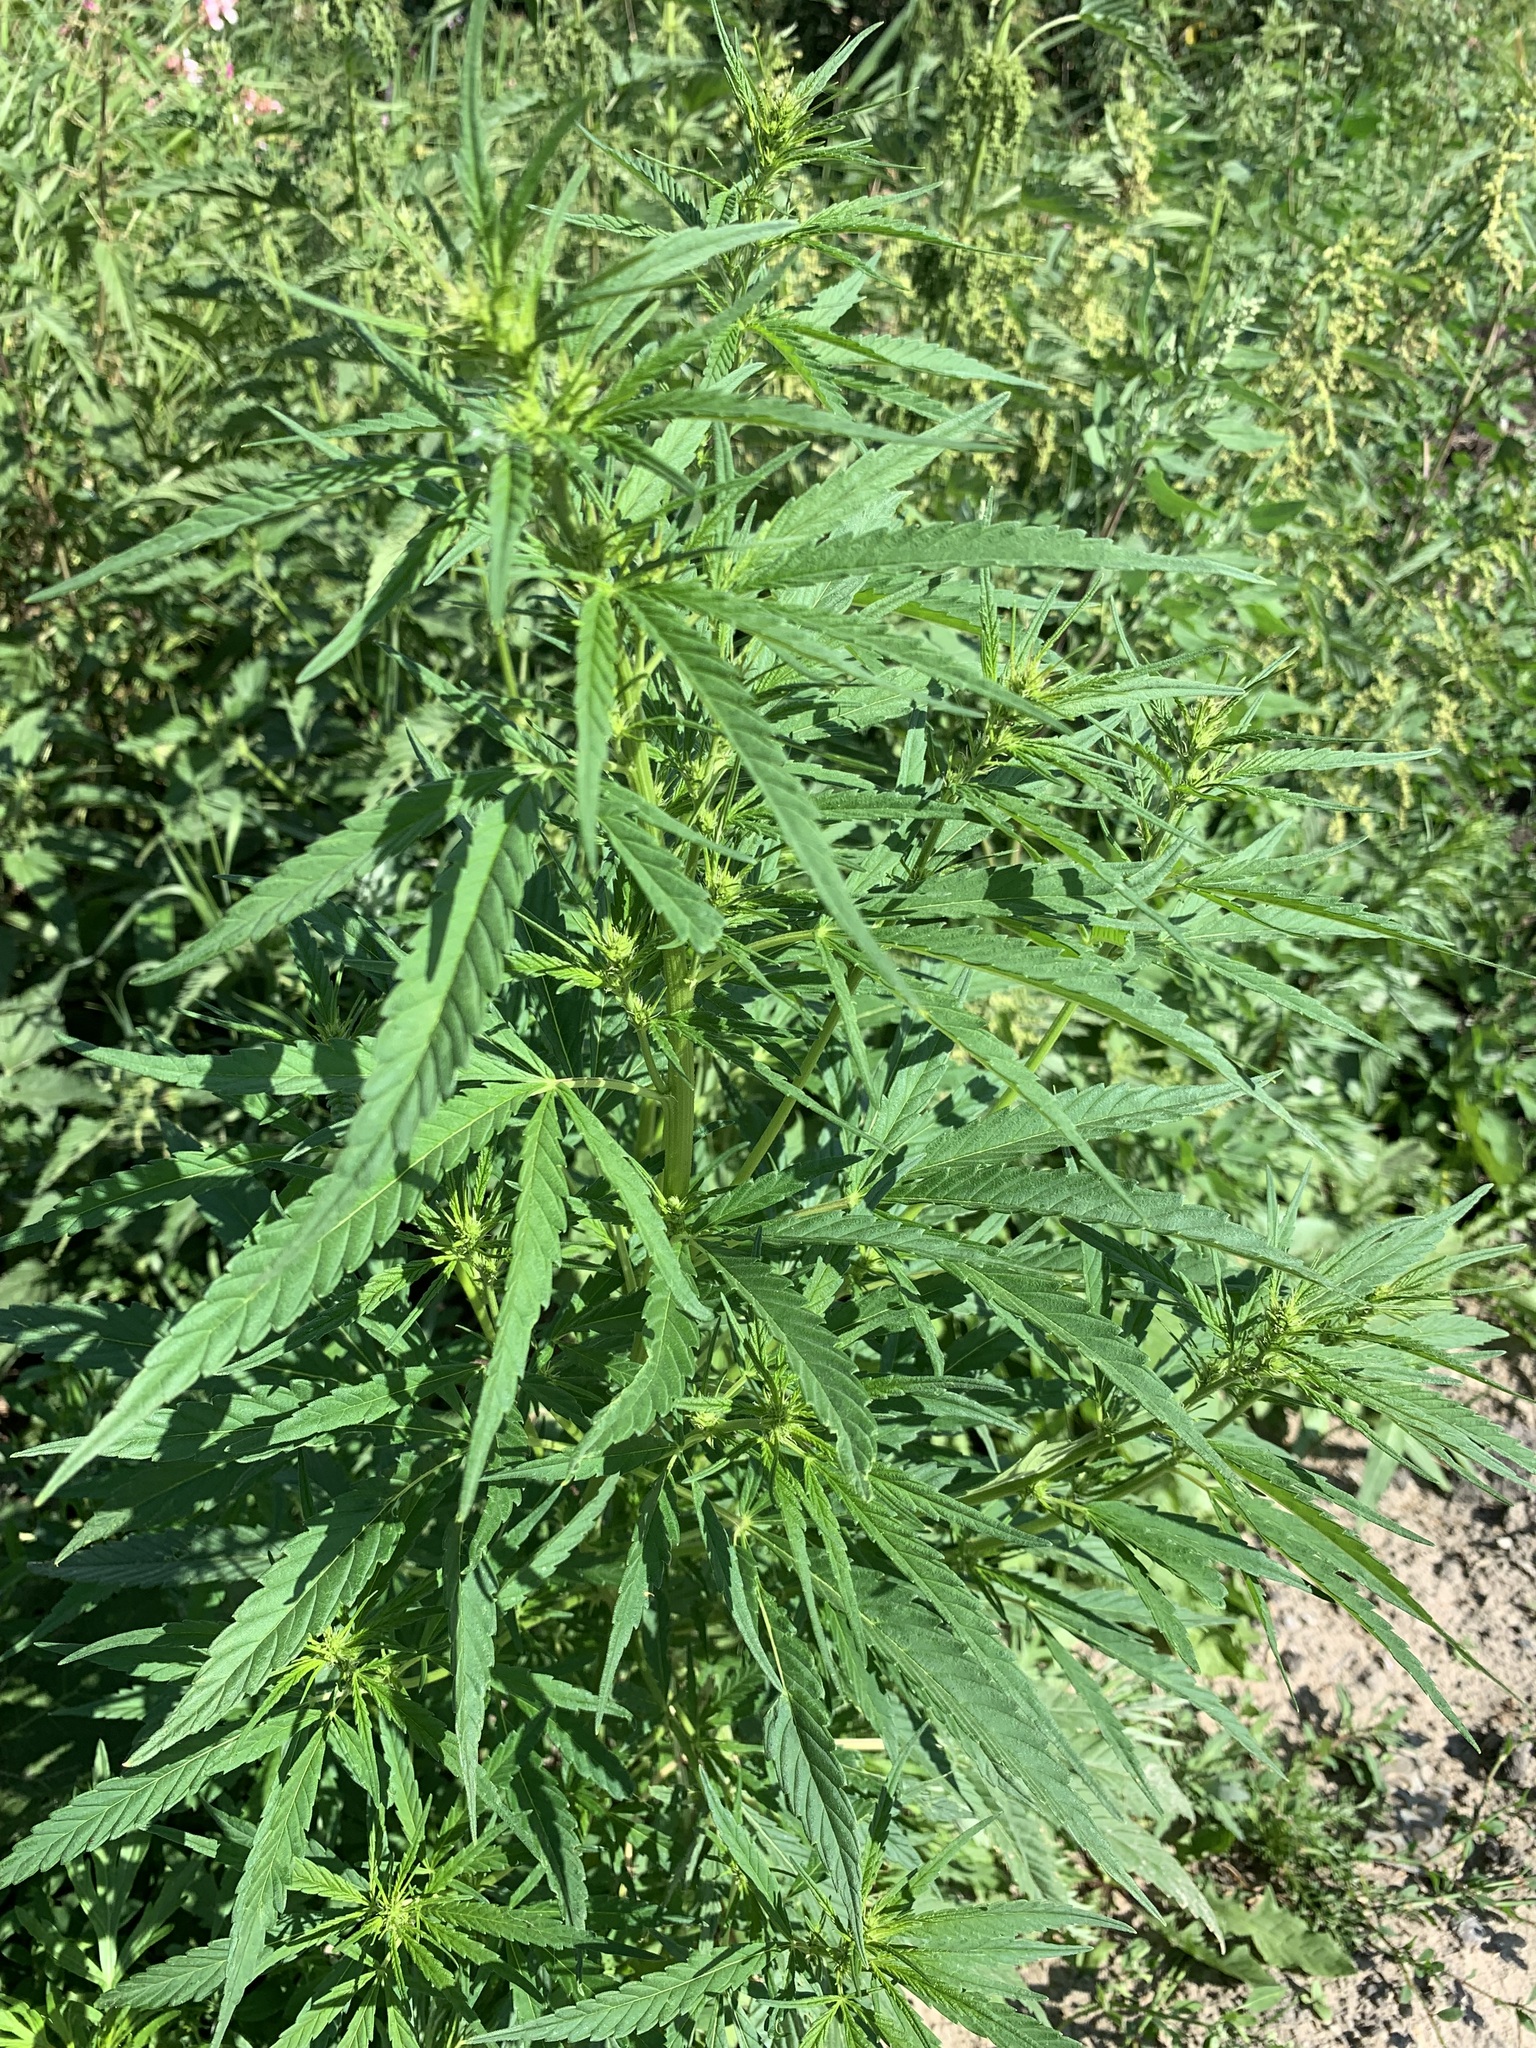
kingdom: Plantae
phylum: Tracheophyta
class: Magnoliopsida
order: Rosales
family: Cannabaceae
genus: Cannabis
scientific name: Cannabis sativa
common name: Hemp
